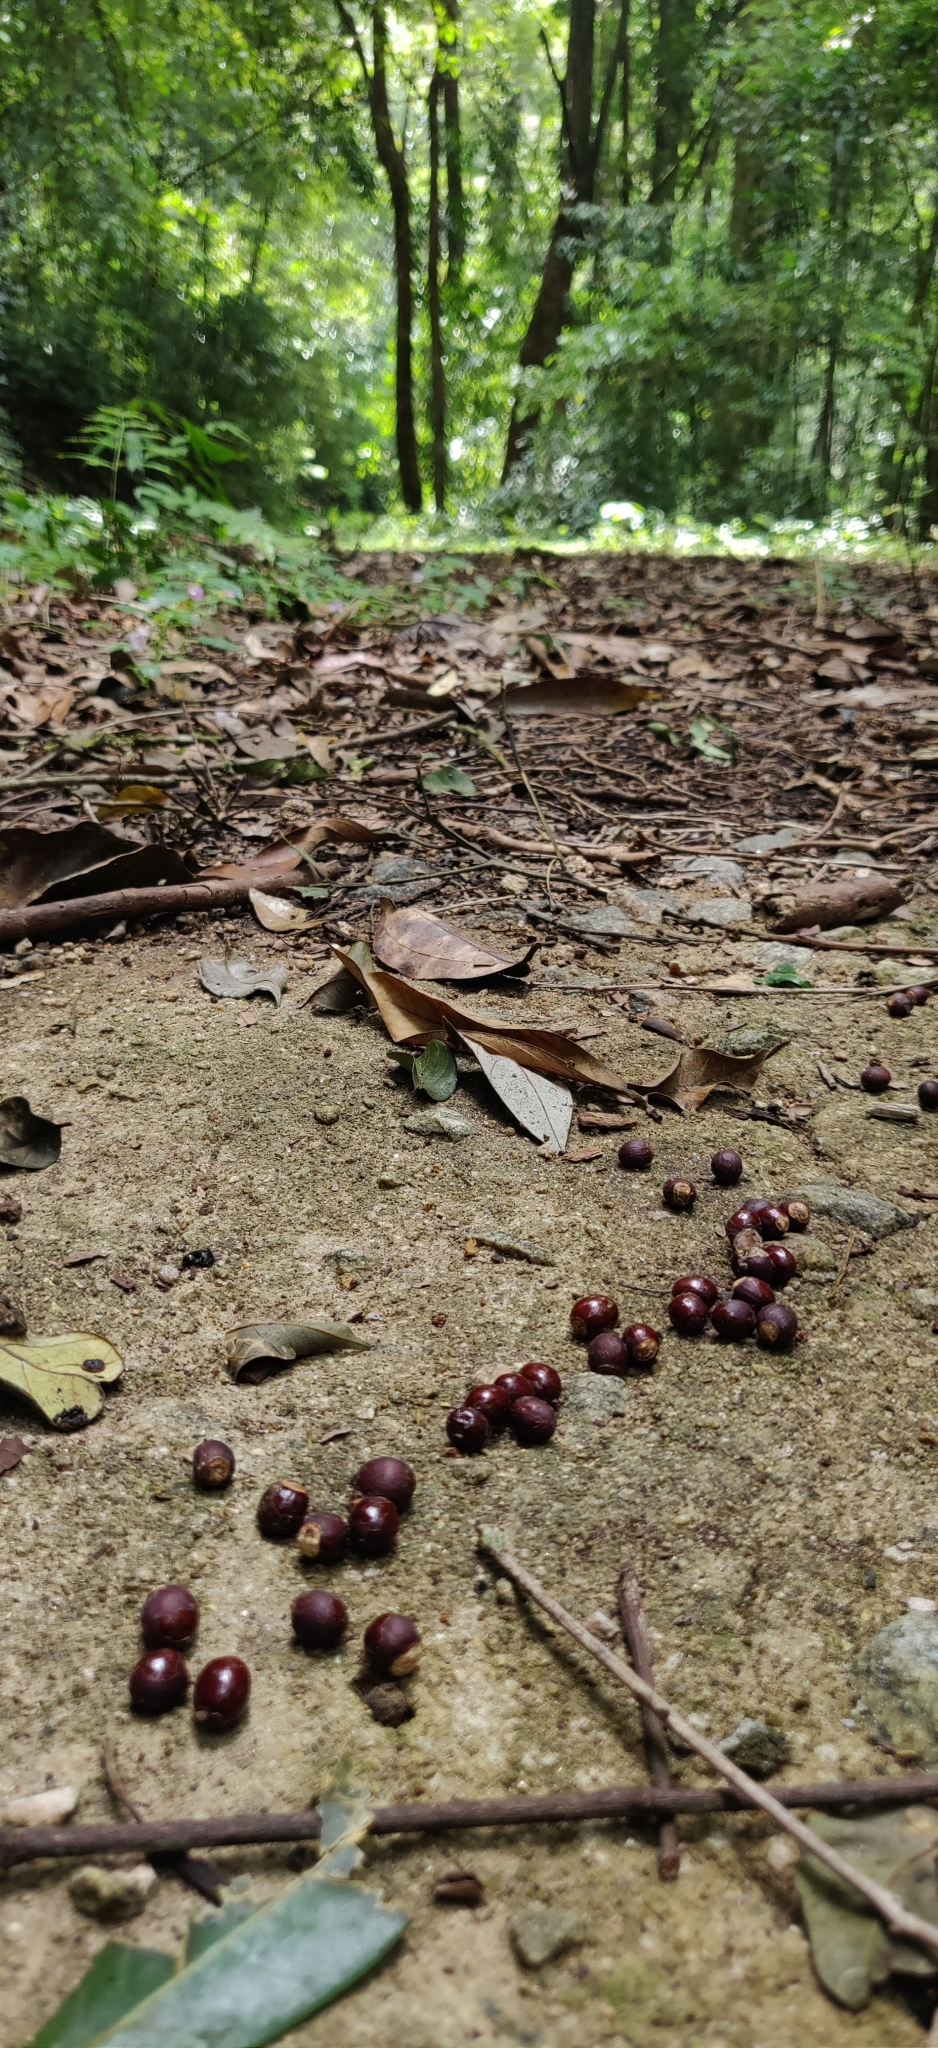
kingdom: Plantae
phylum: Tracheophyta
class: Magnoliopsida
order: Sapindales
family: Sapindaceae
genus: Dimocarpus
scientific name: Dimocarpus longan
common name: Longan
